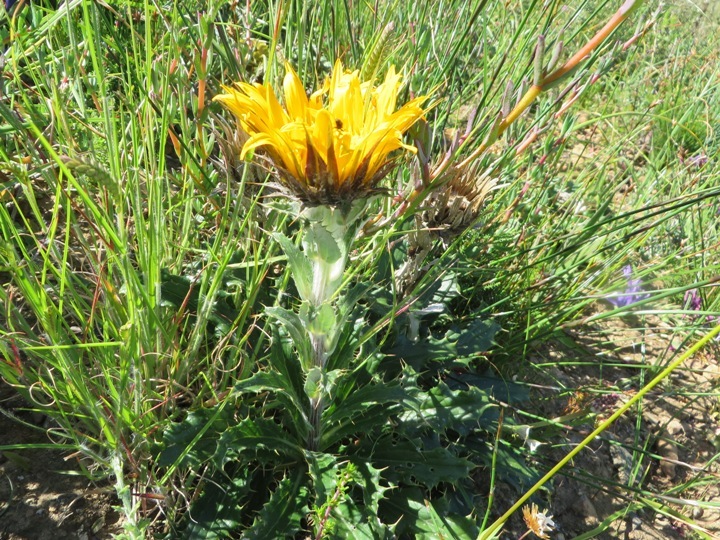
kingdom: Plantae
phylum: Tracheophyta
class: Magnoliopsida
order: Asterales
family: Asteraceae
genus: Berkheya
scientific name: Berkheya barbata
